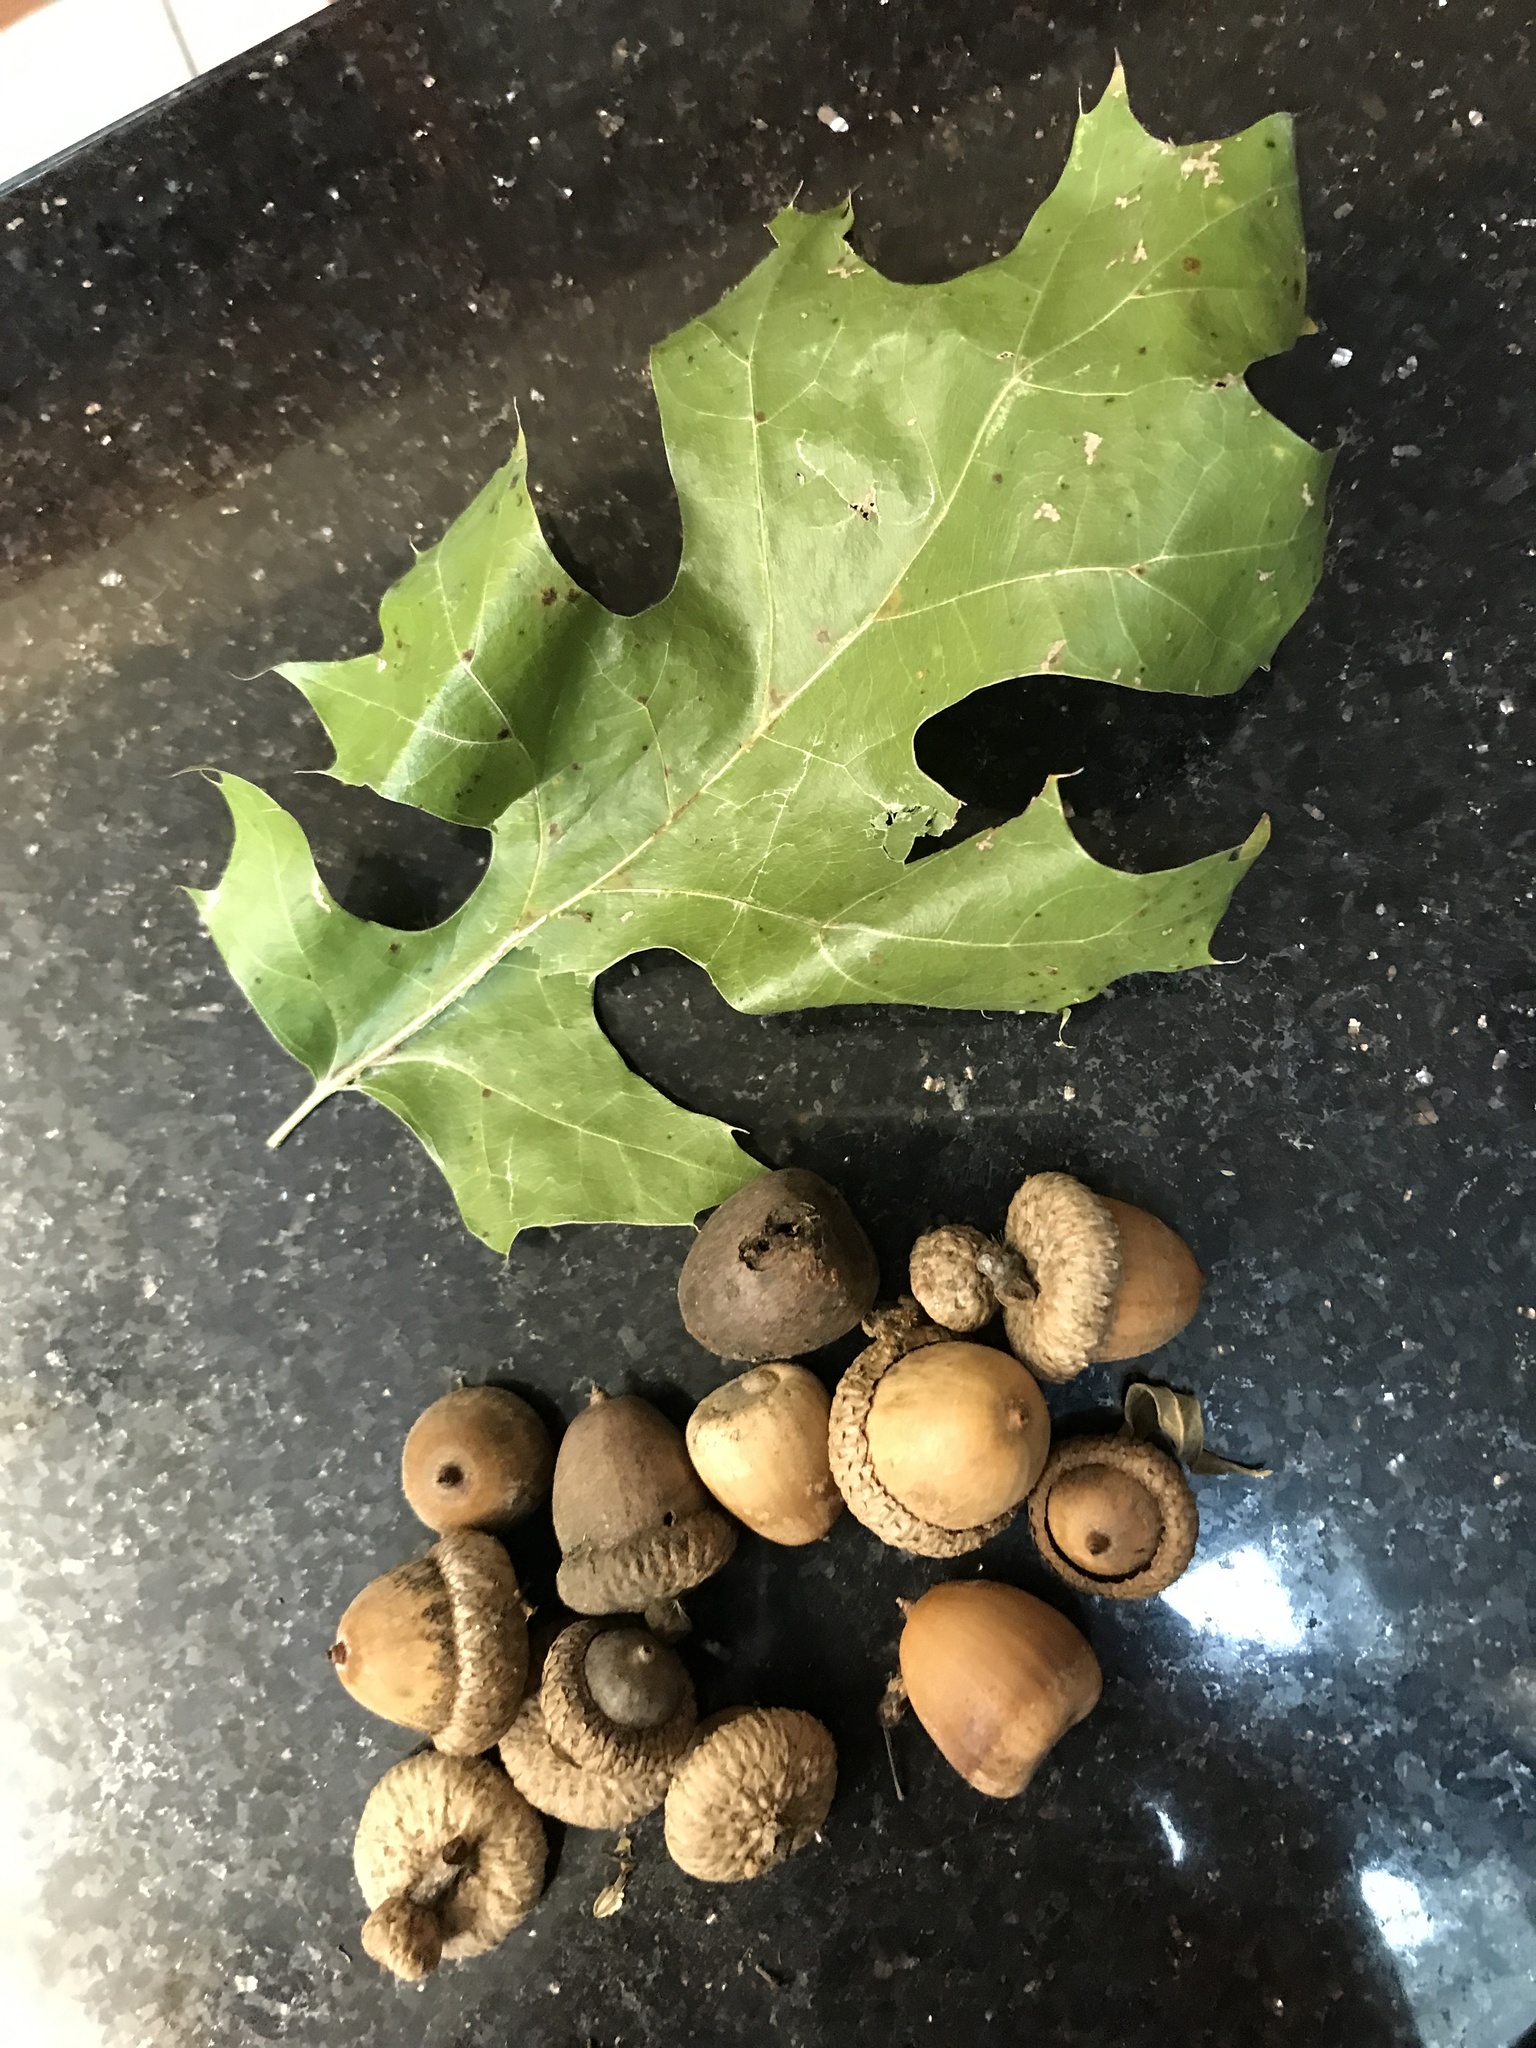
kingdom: Plantae
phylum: Tracheophyta
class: Magnoliopsida
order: Fagales
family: Fagaceae
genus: Quercus
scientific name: Quercus shumardii
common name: Shumard oak
